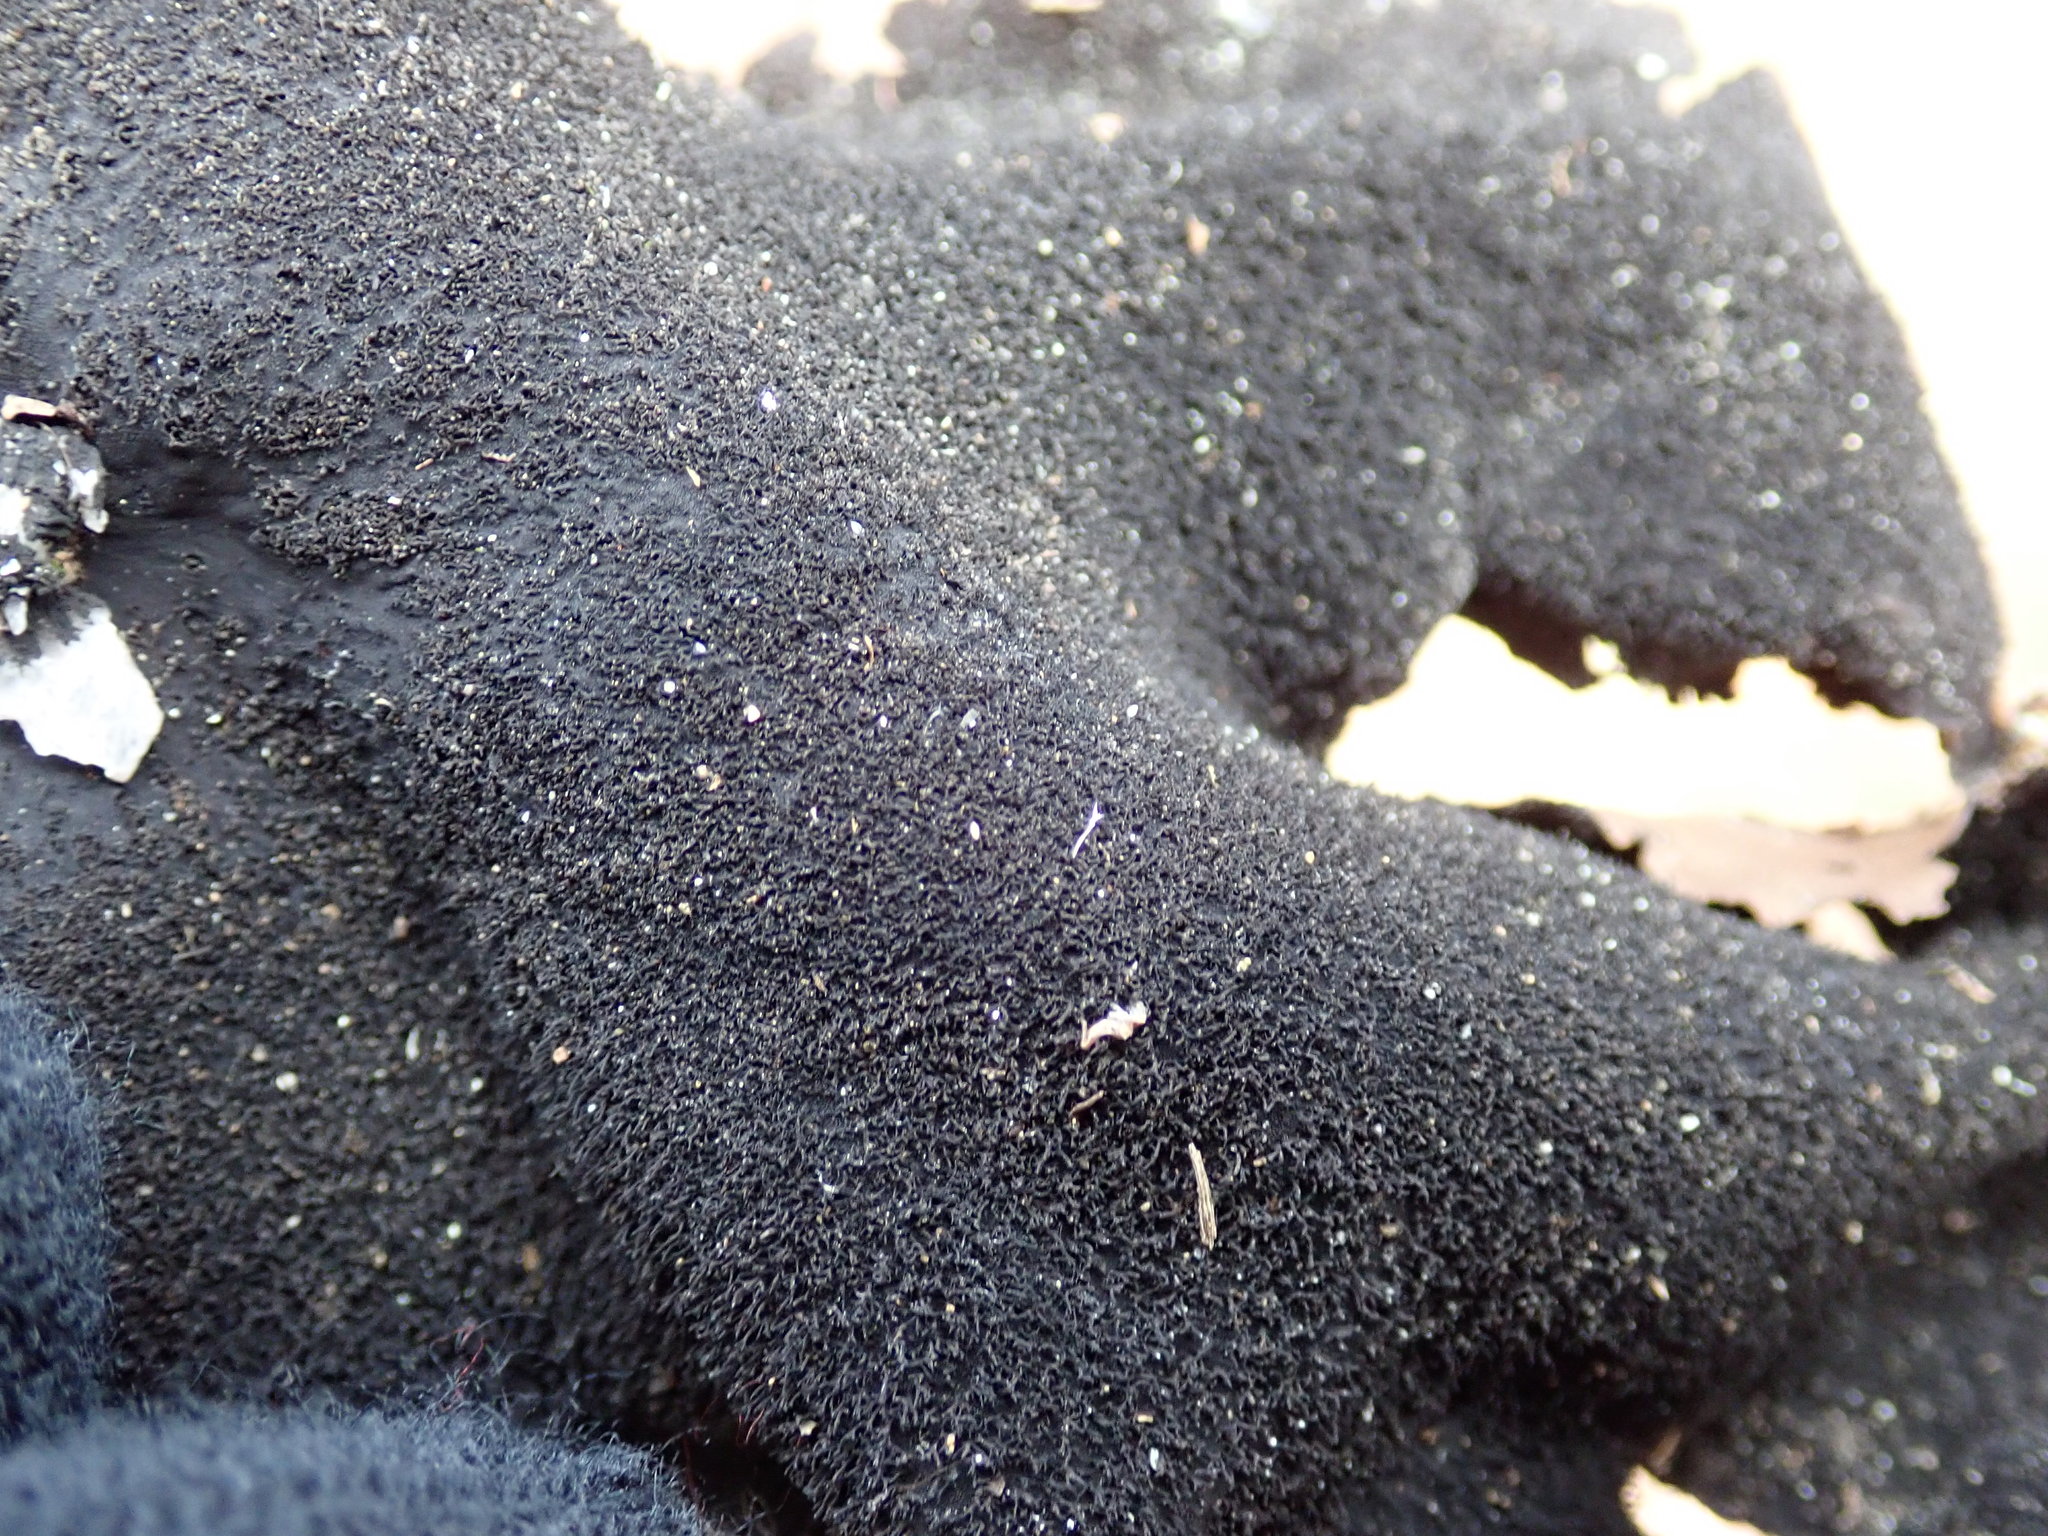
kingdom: Fungi
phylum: Ascomycota
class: Lecanoromycetes
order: Umbilicariales
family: Umbilicariaceae
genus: Umbilicaria
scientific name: Umbilicaria mammulata
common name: Smooth rock tripe
